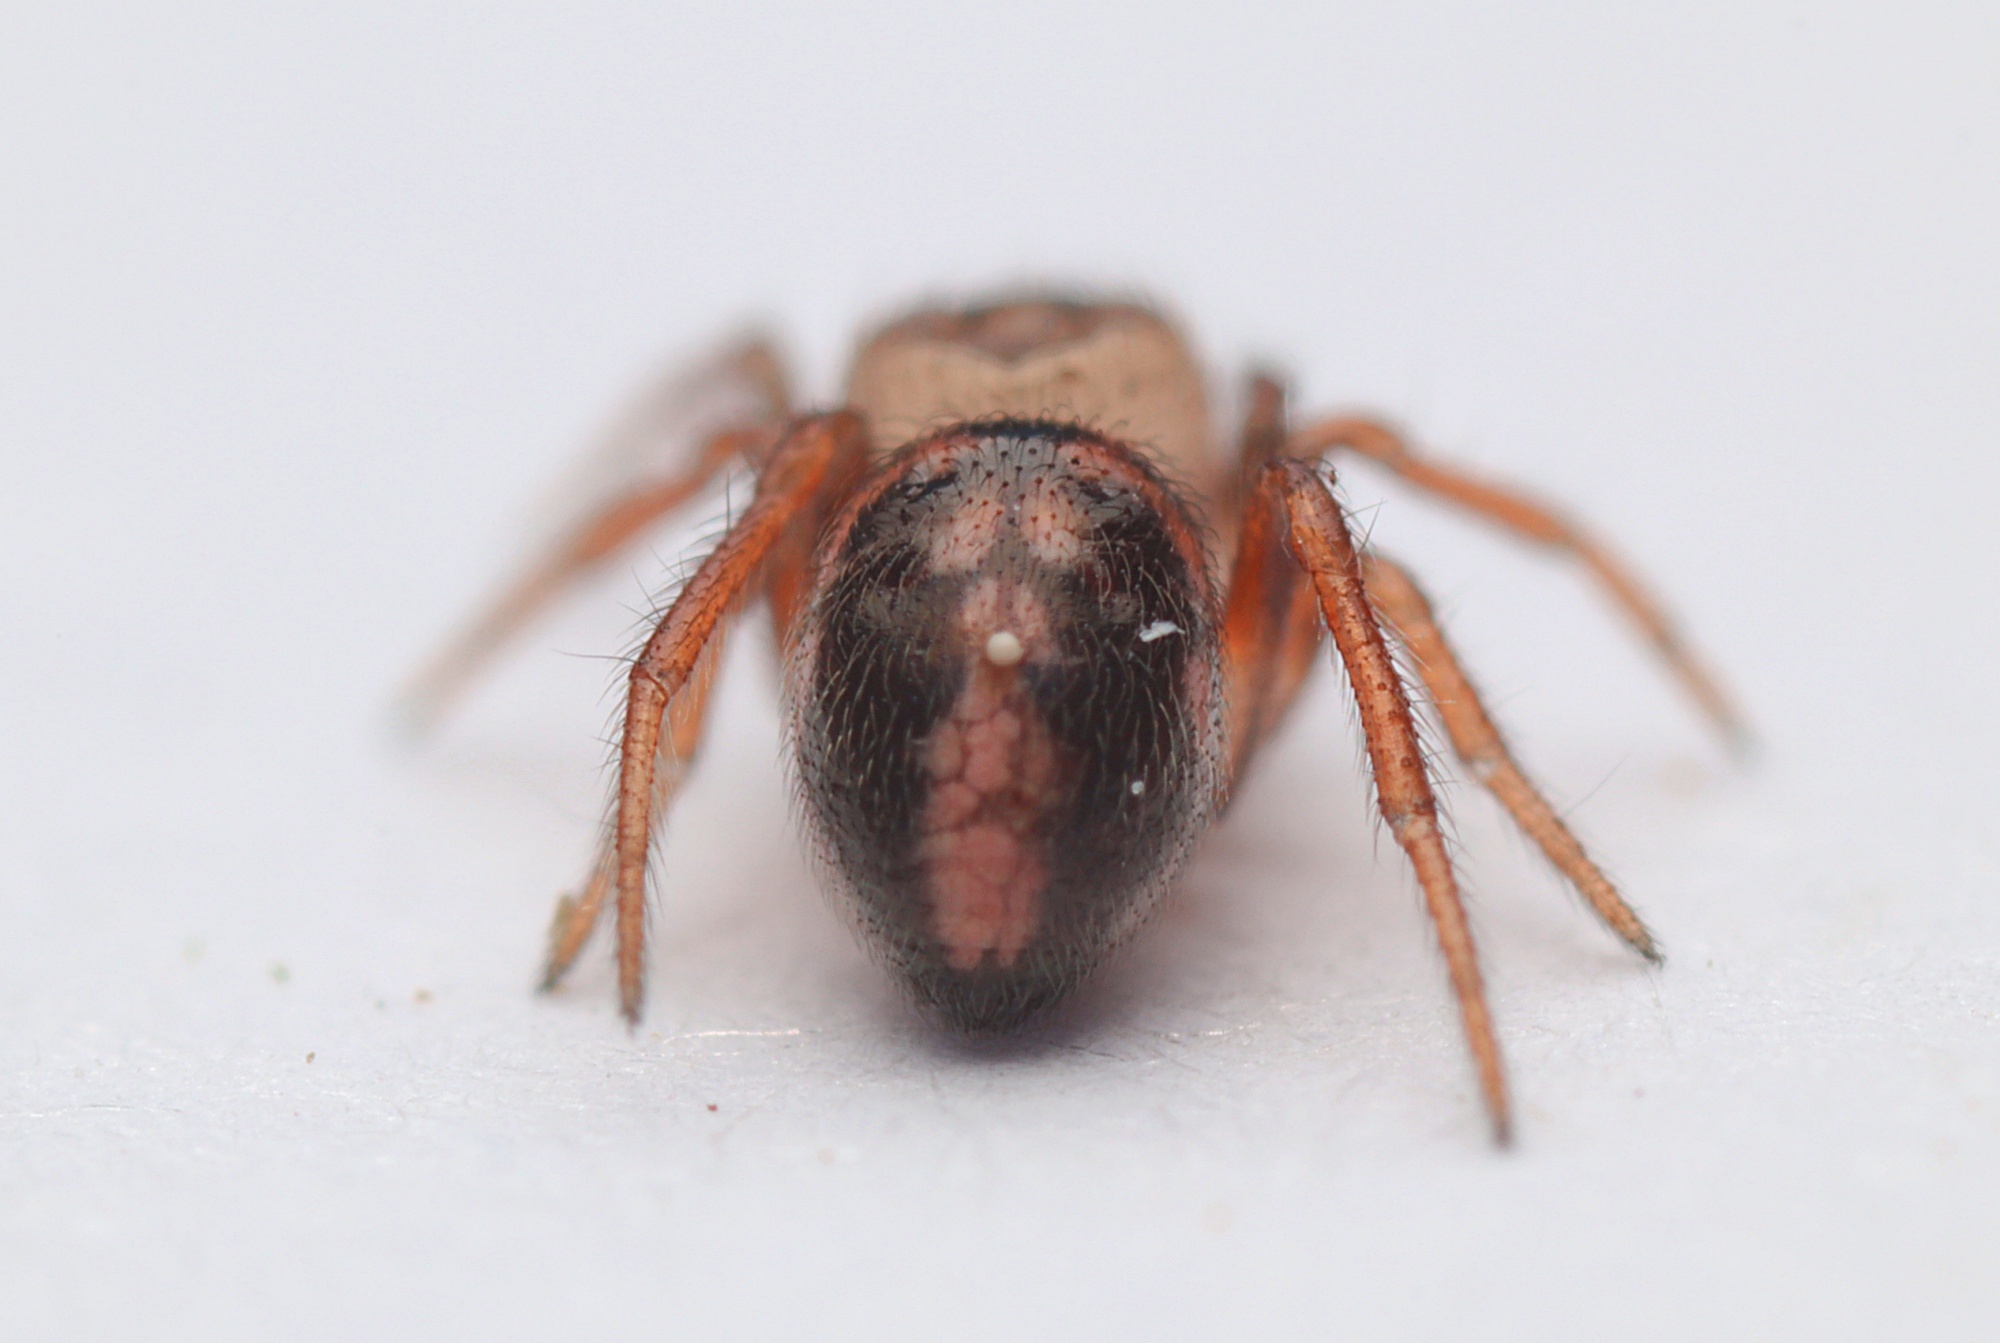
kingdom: Animalia
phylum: Arthropoda
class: Arachnida
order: Araneae
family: Theridiidae
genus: Phycosoma
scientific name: Phycosoma oecobioides
